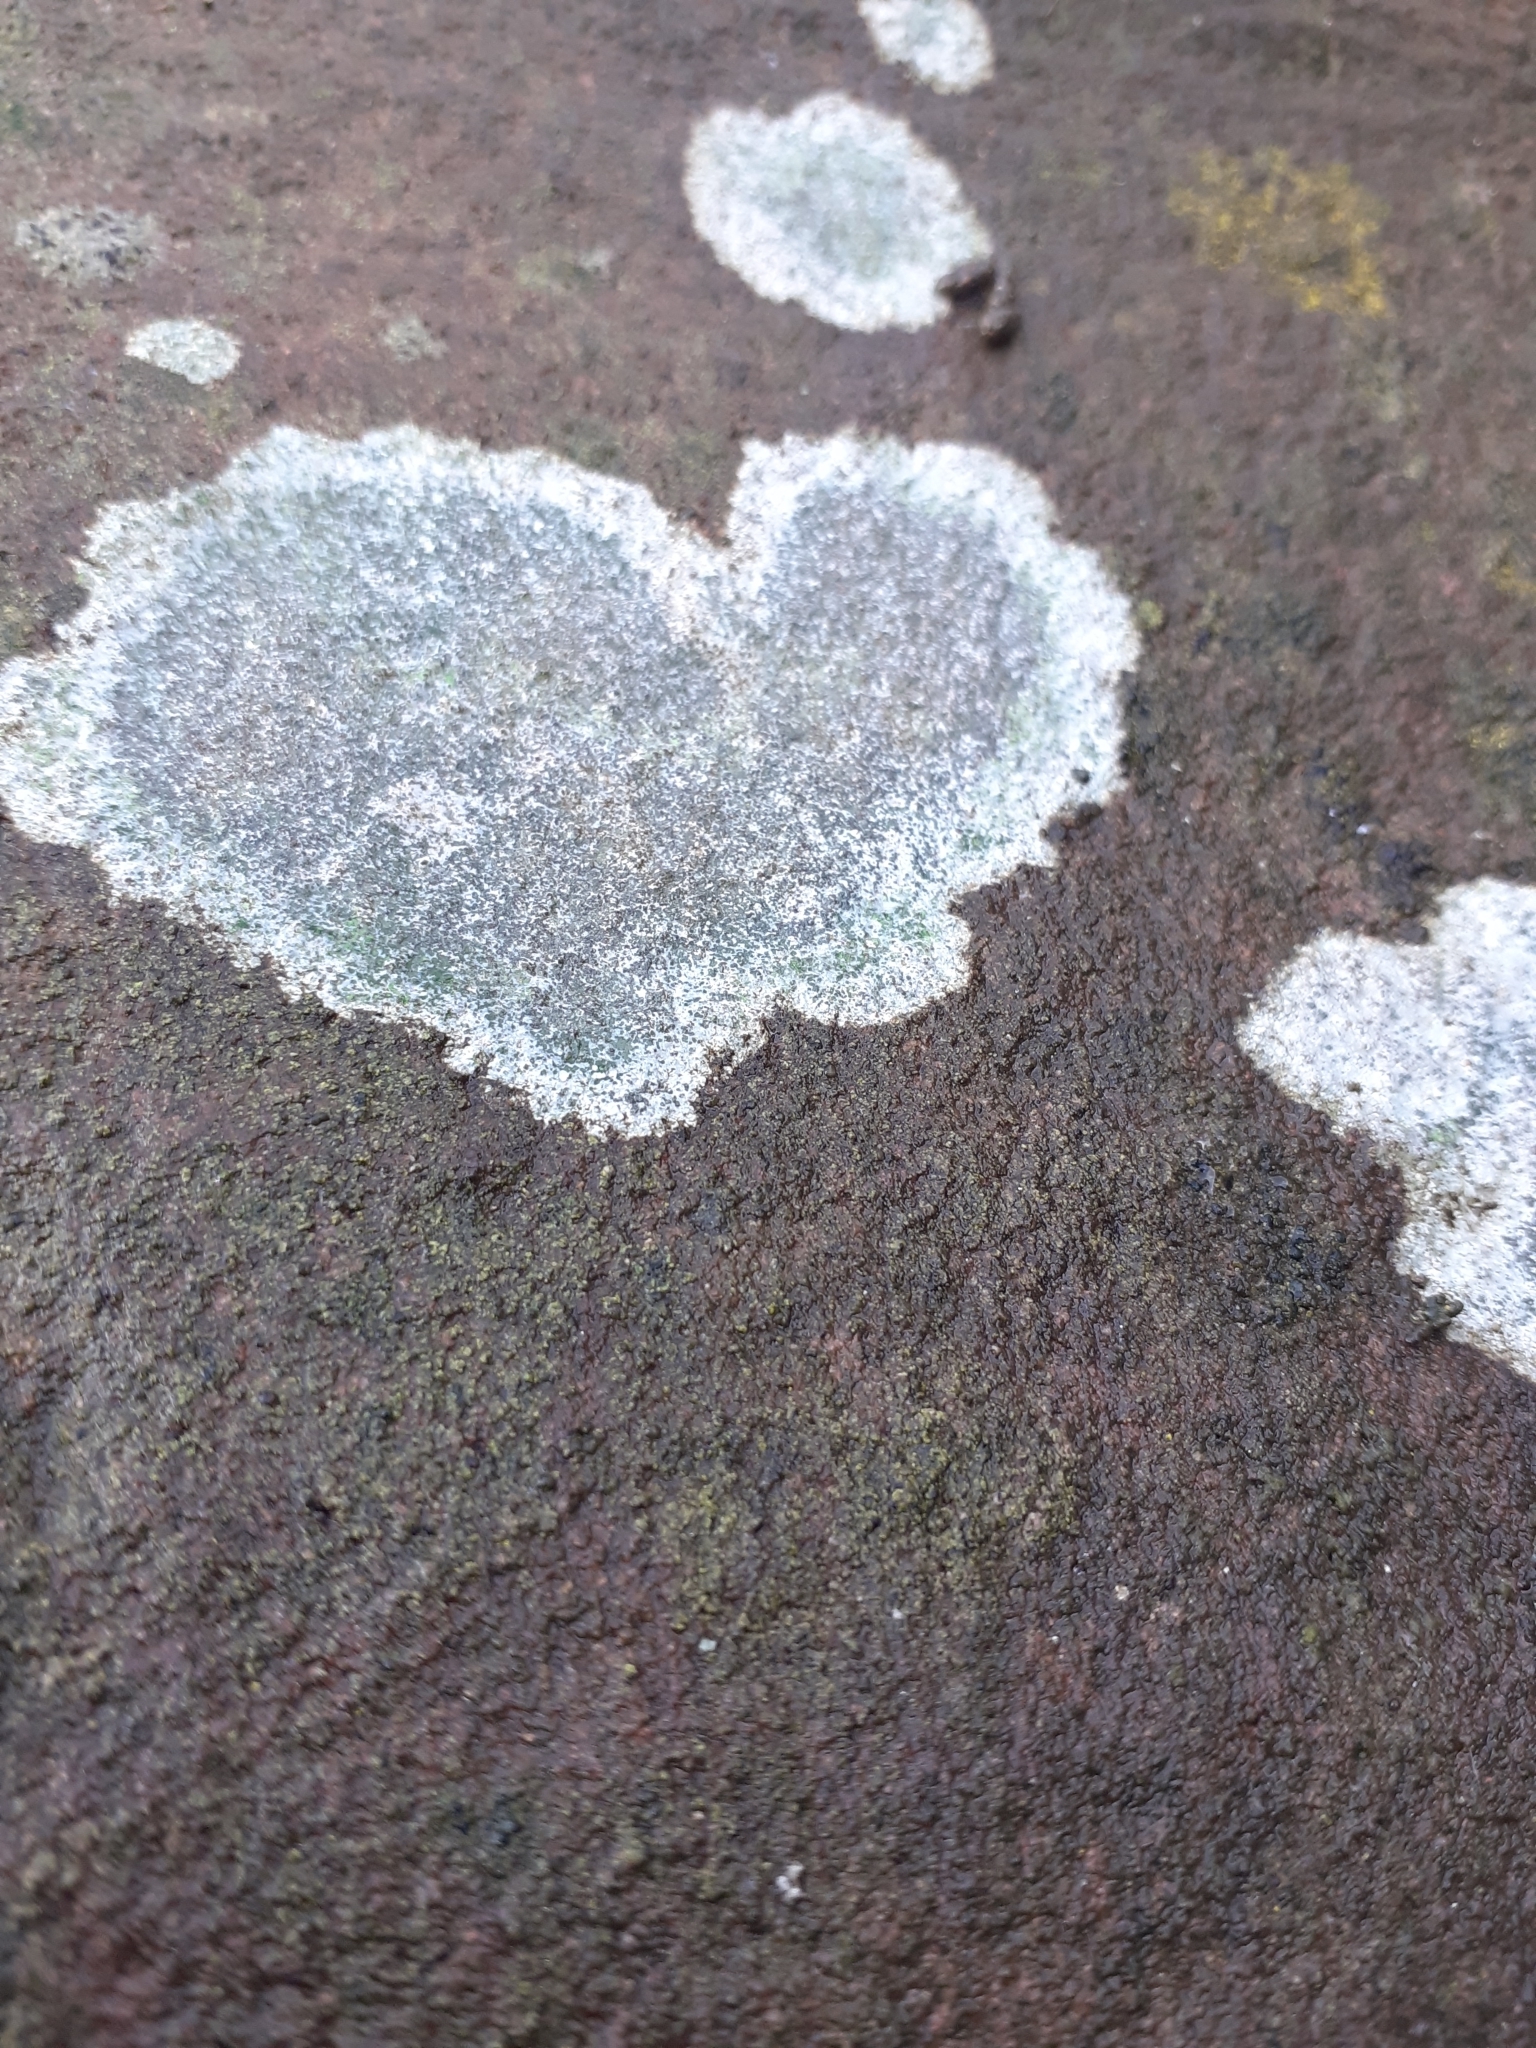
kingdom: Fungi
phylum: Ascomycota
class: Lecanoromycetes
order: Lecanorales
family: Lecanoraceae
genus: Lecidella
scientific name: Lecidella elaeochroma
